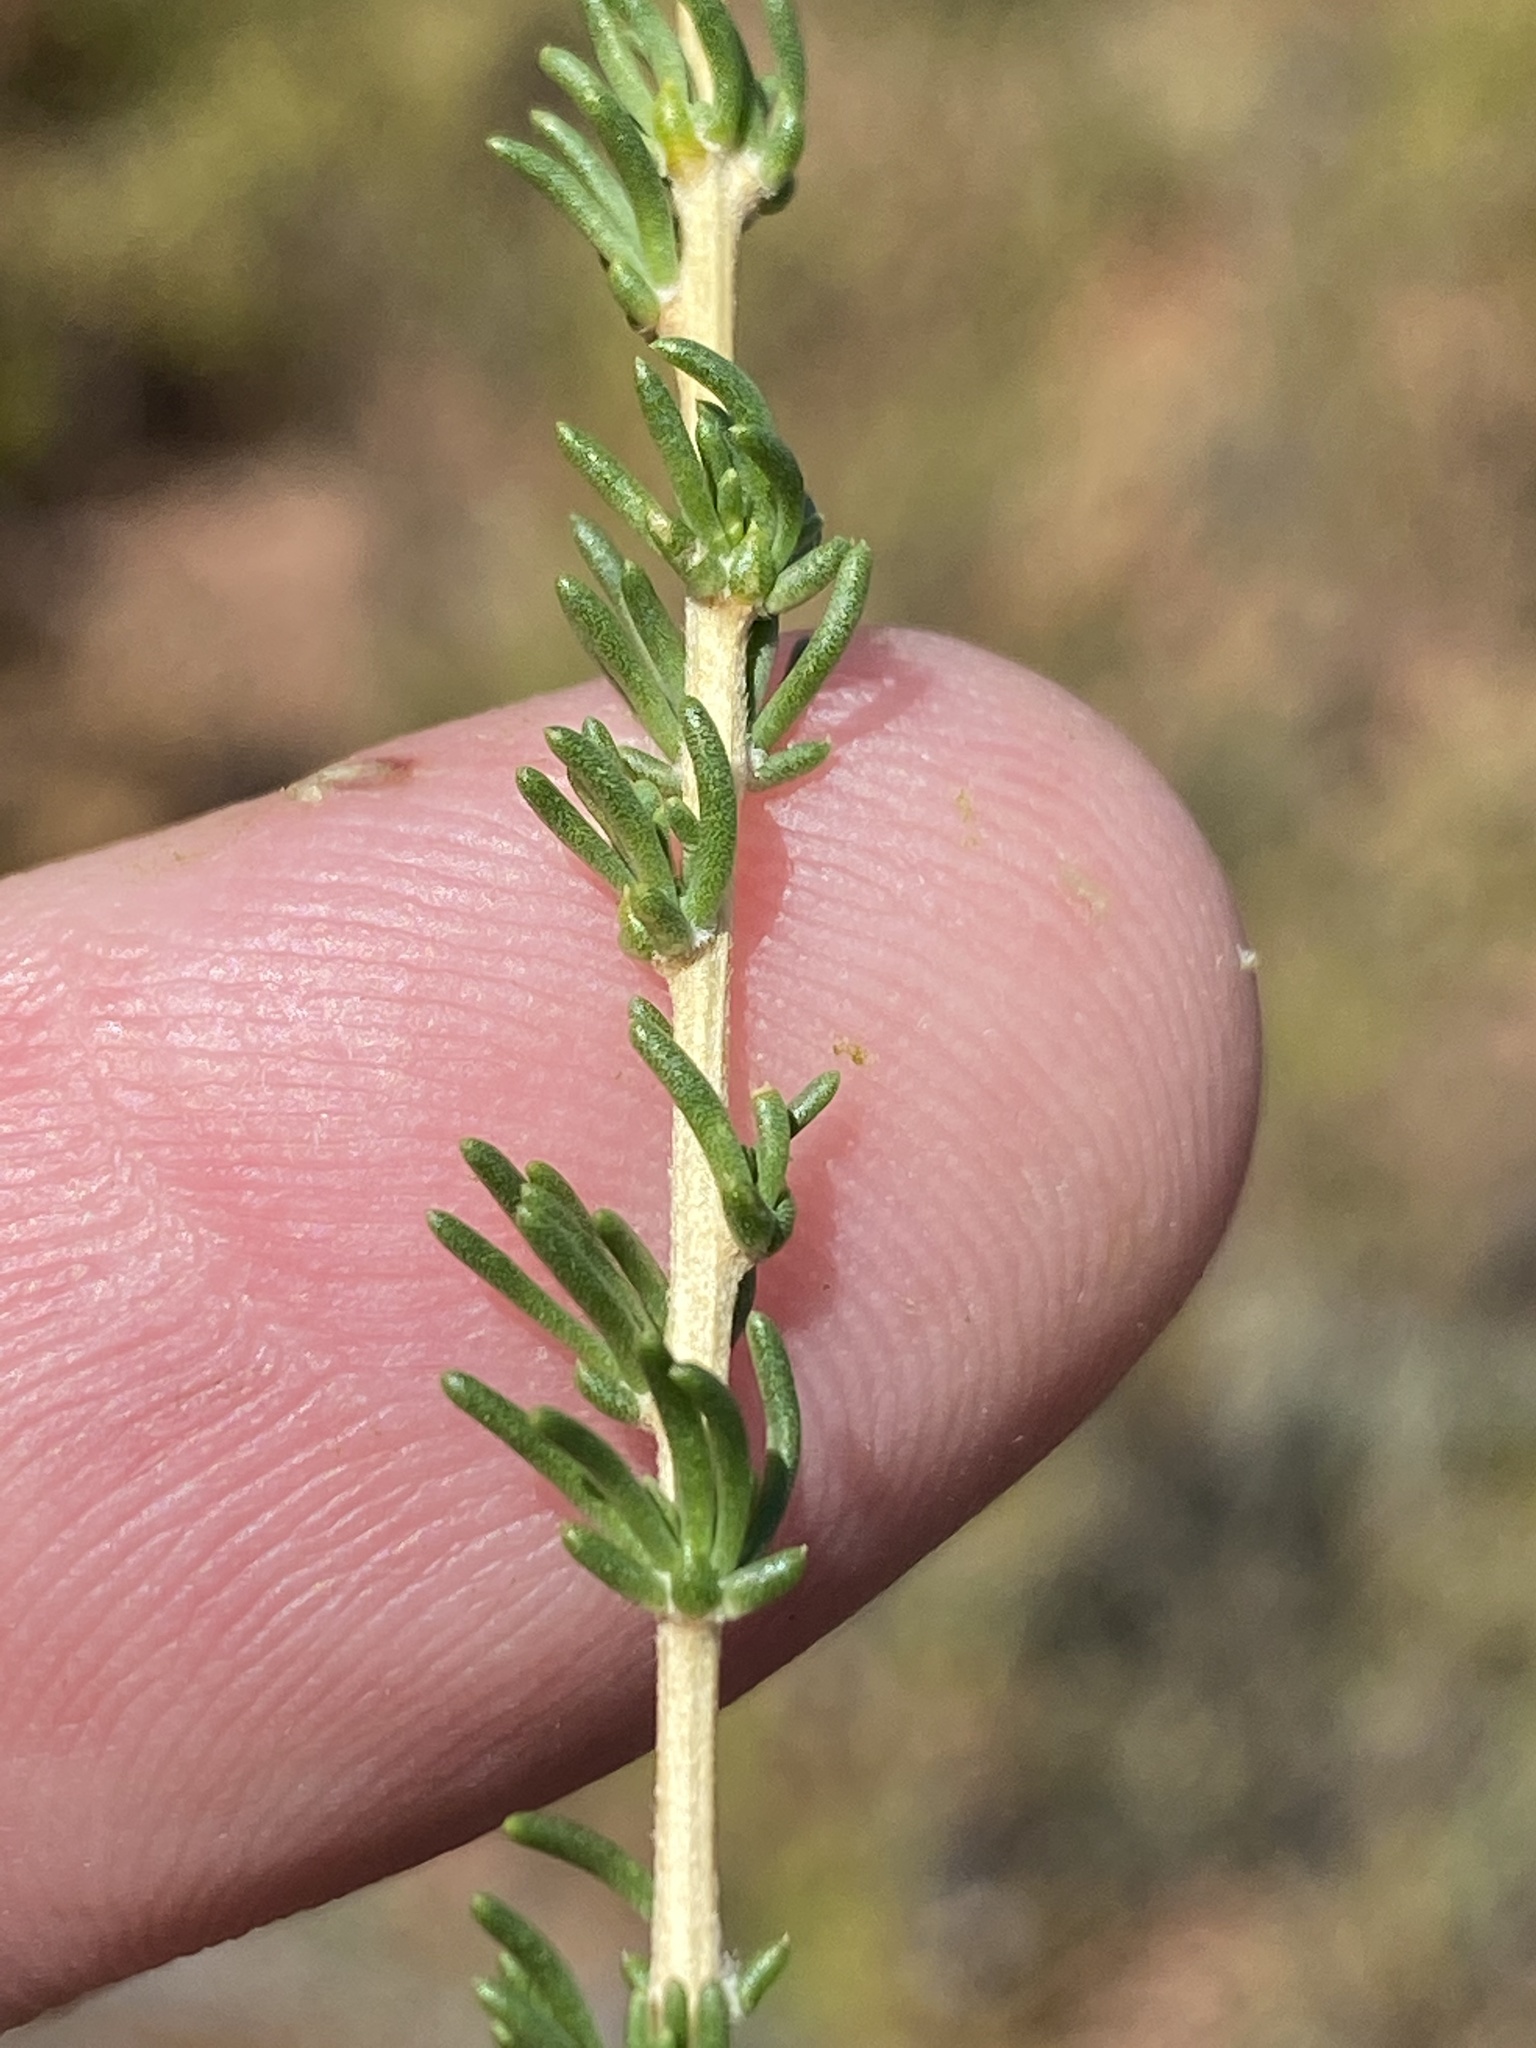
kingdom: Plantae
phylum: Tracheophyta
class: Magnoliopsida
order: Fabales
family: Fabaceae
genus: Aspalathus
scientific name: Aspalathus corrudifolia
